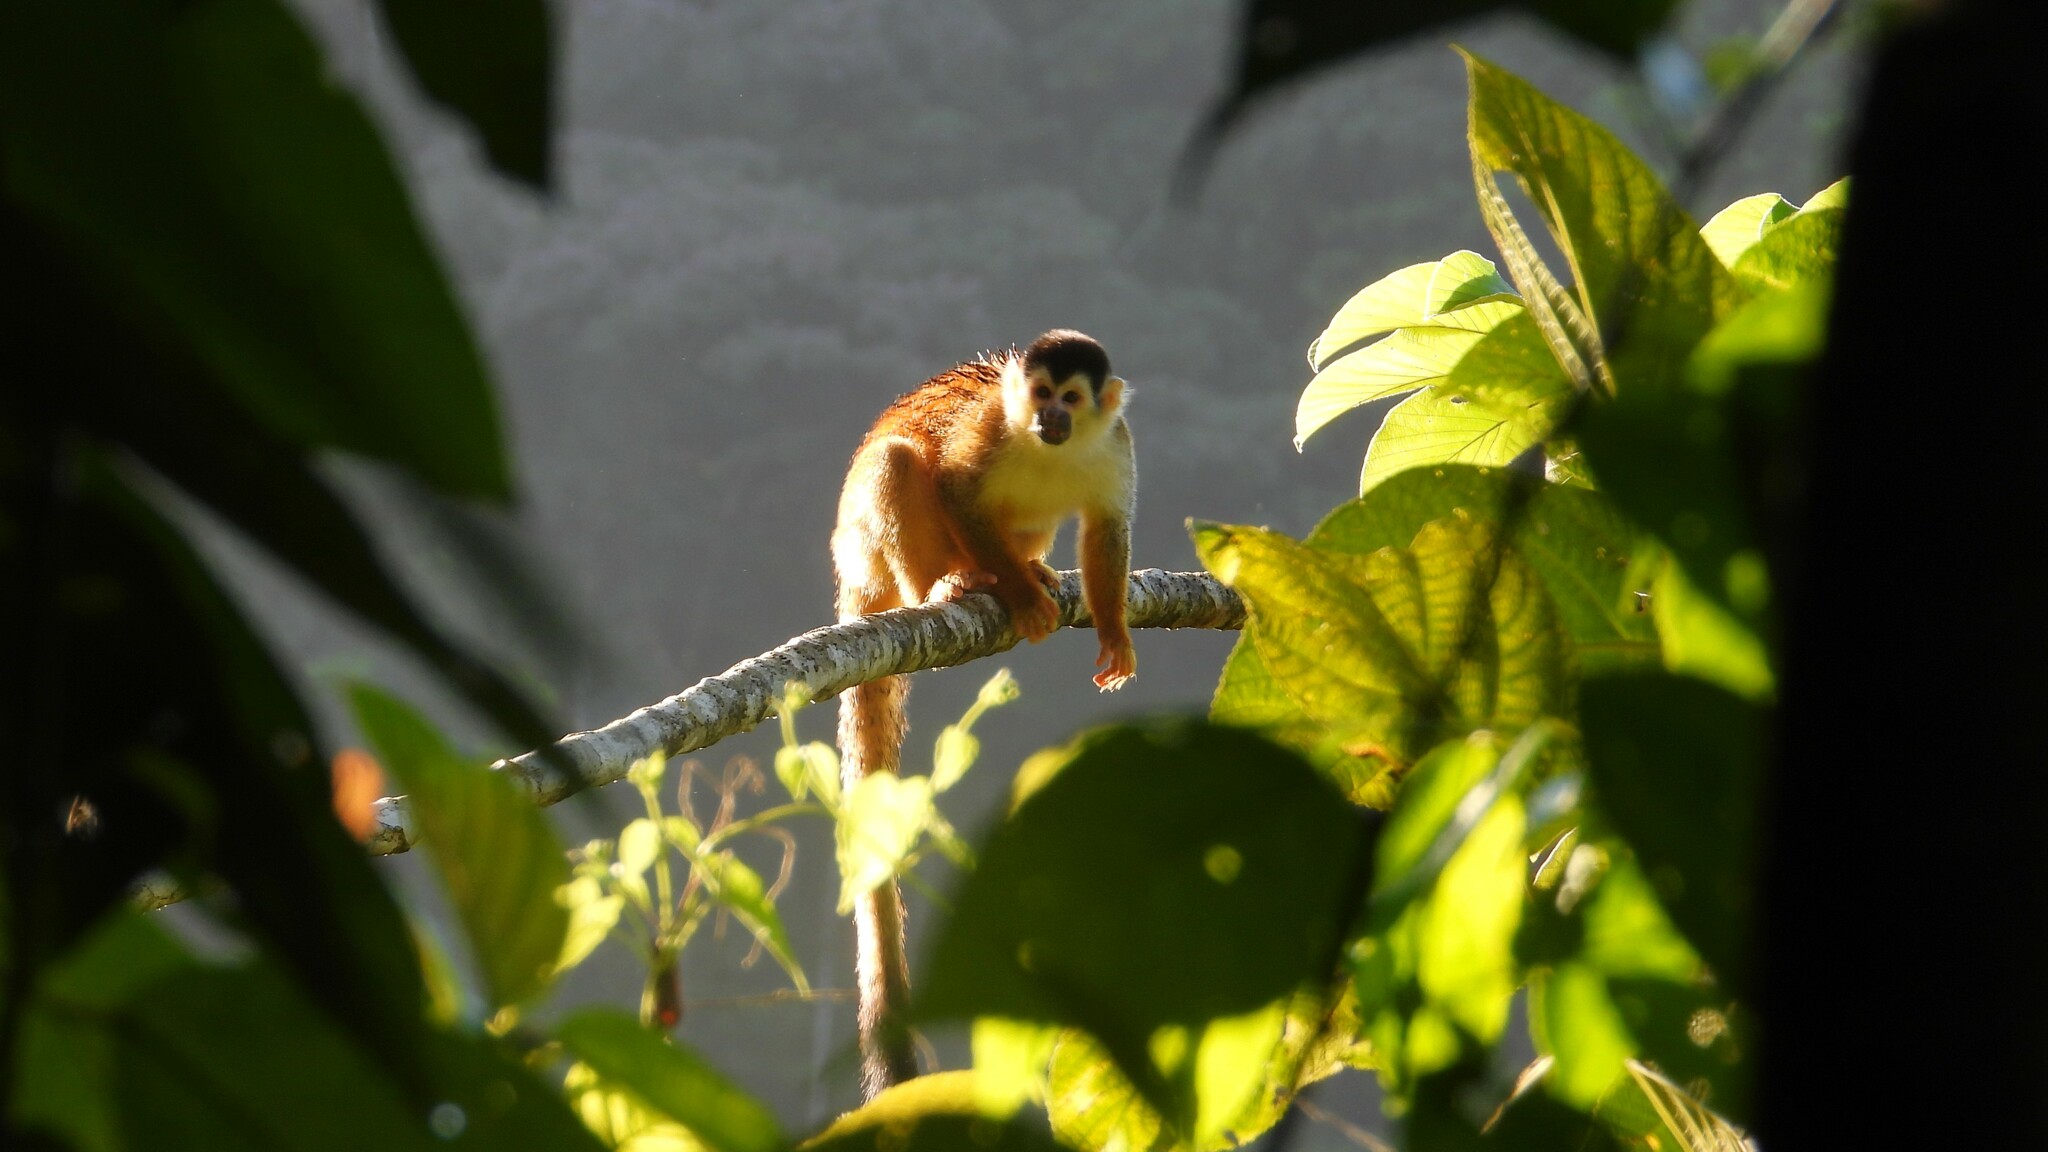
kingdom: Animalia
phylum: Chordata
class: Mammalia
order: Primates
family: Cebidae
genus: Saimiri
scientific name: Saimiri oerstedii
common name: Central american squirrel monkey
